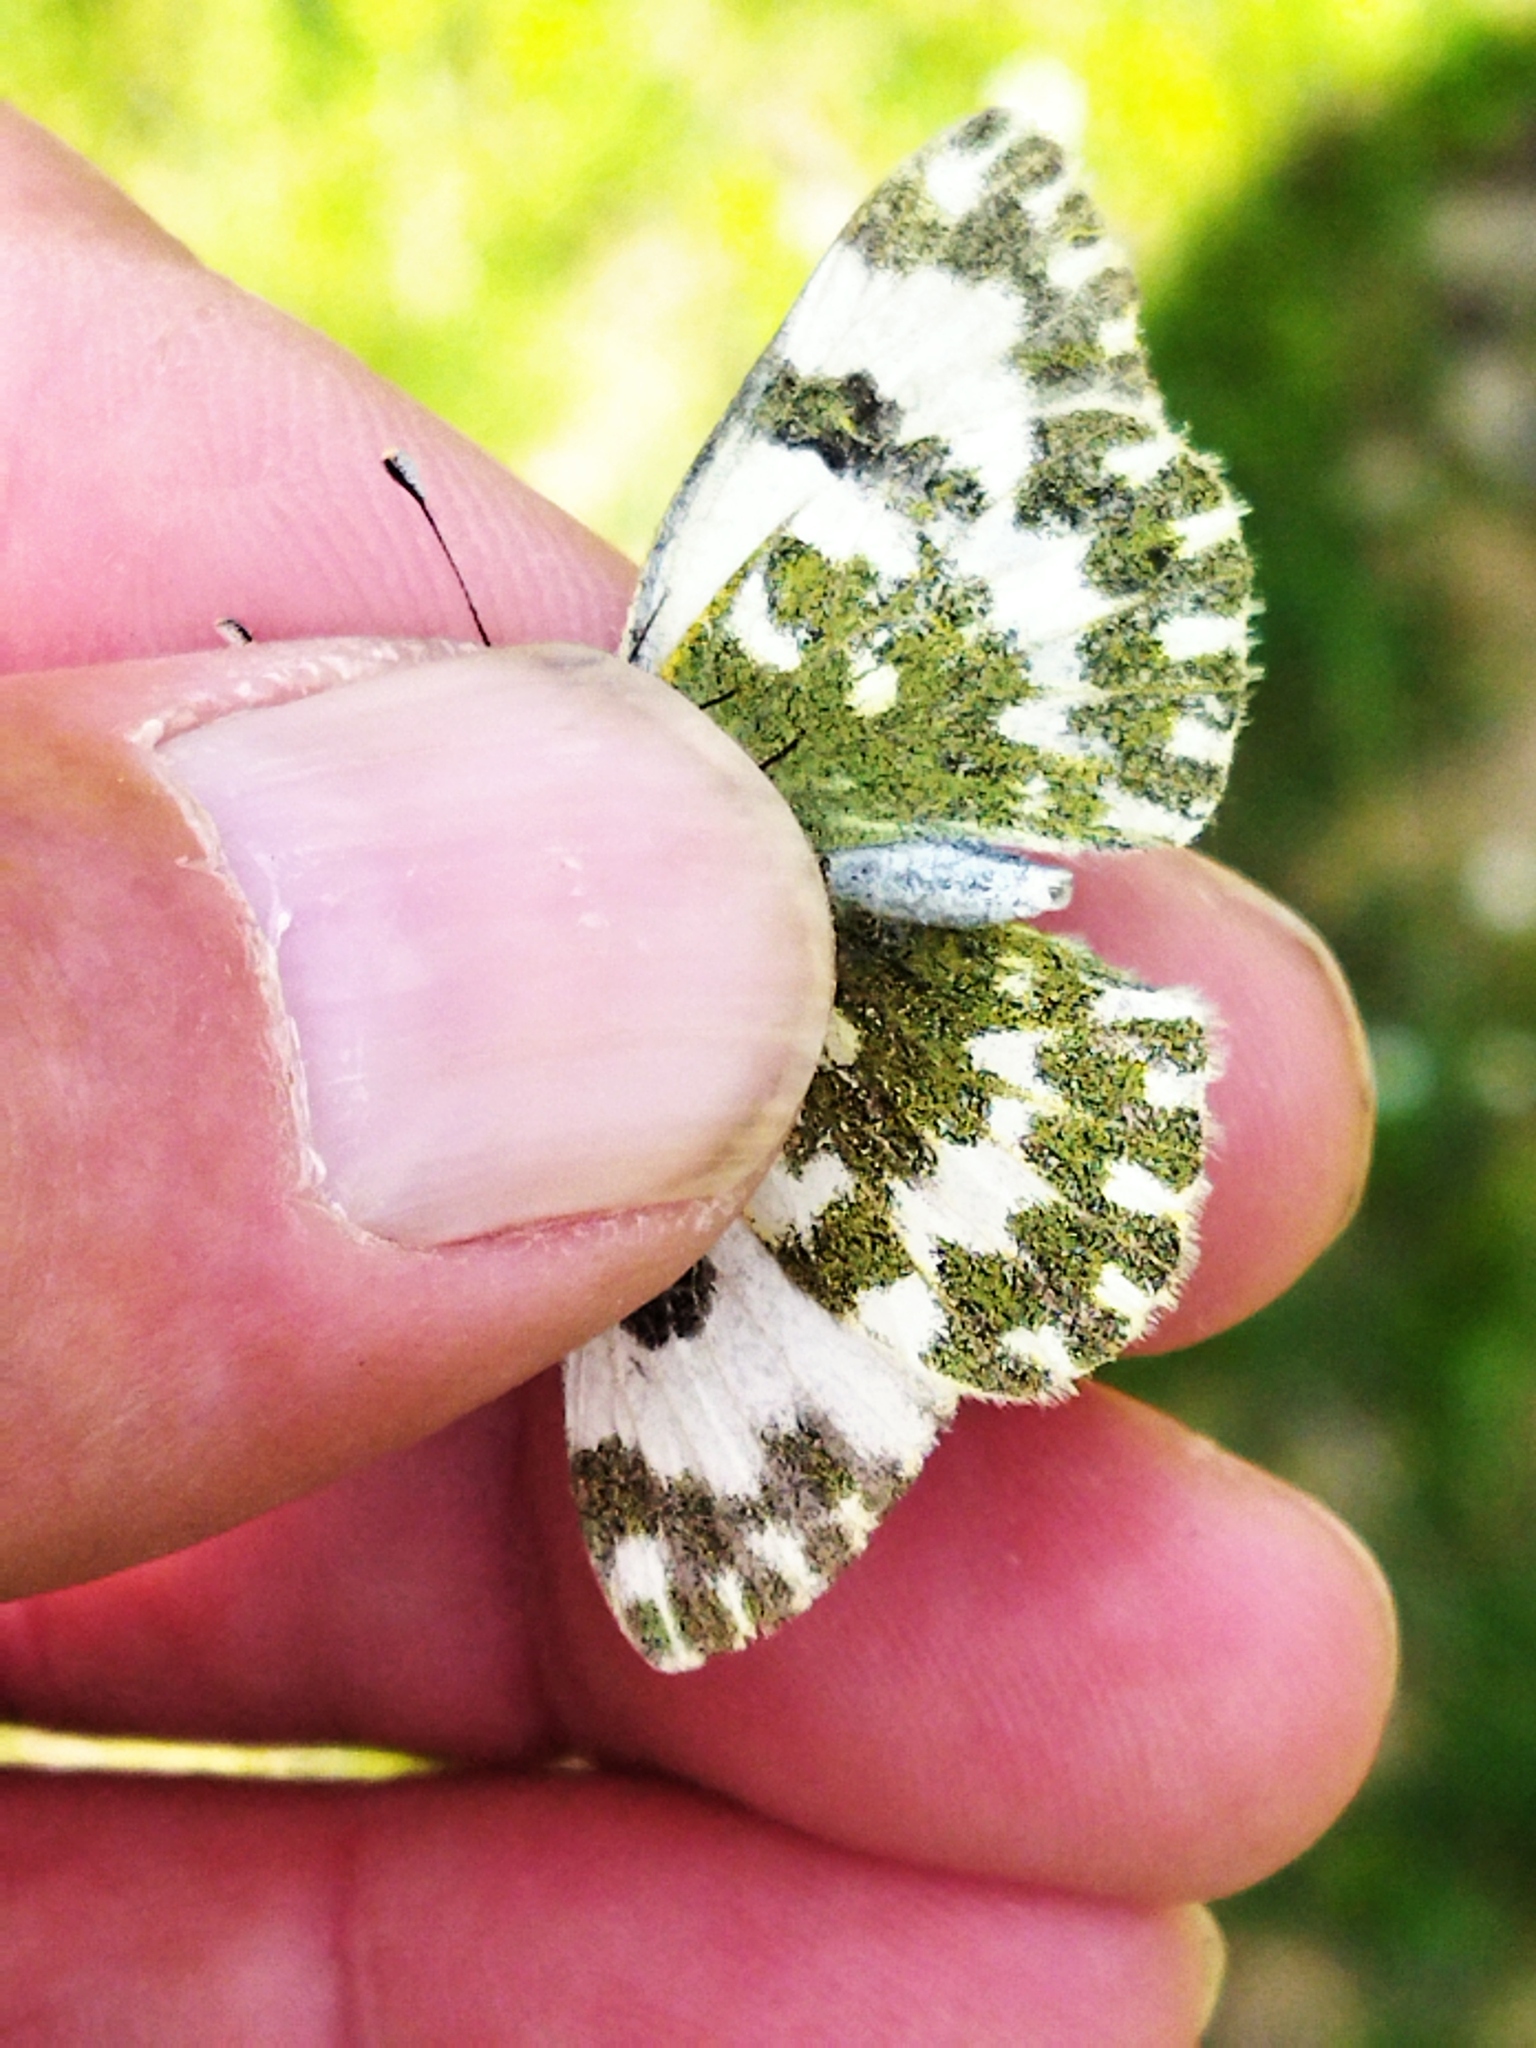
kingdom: Animalia
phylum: Arthropoda
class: Insecta
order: Lepidoptera
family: Pieridae
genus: Pontia
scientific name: Pontia edusa
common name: Eastern bath white
